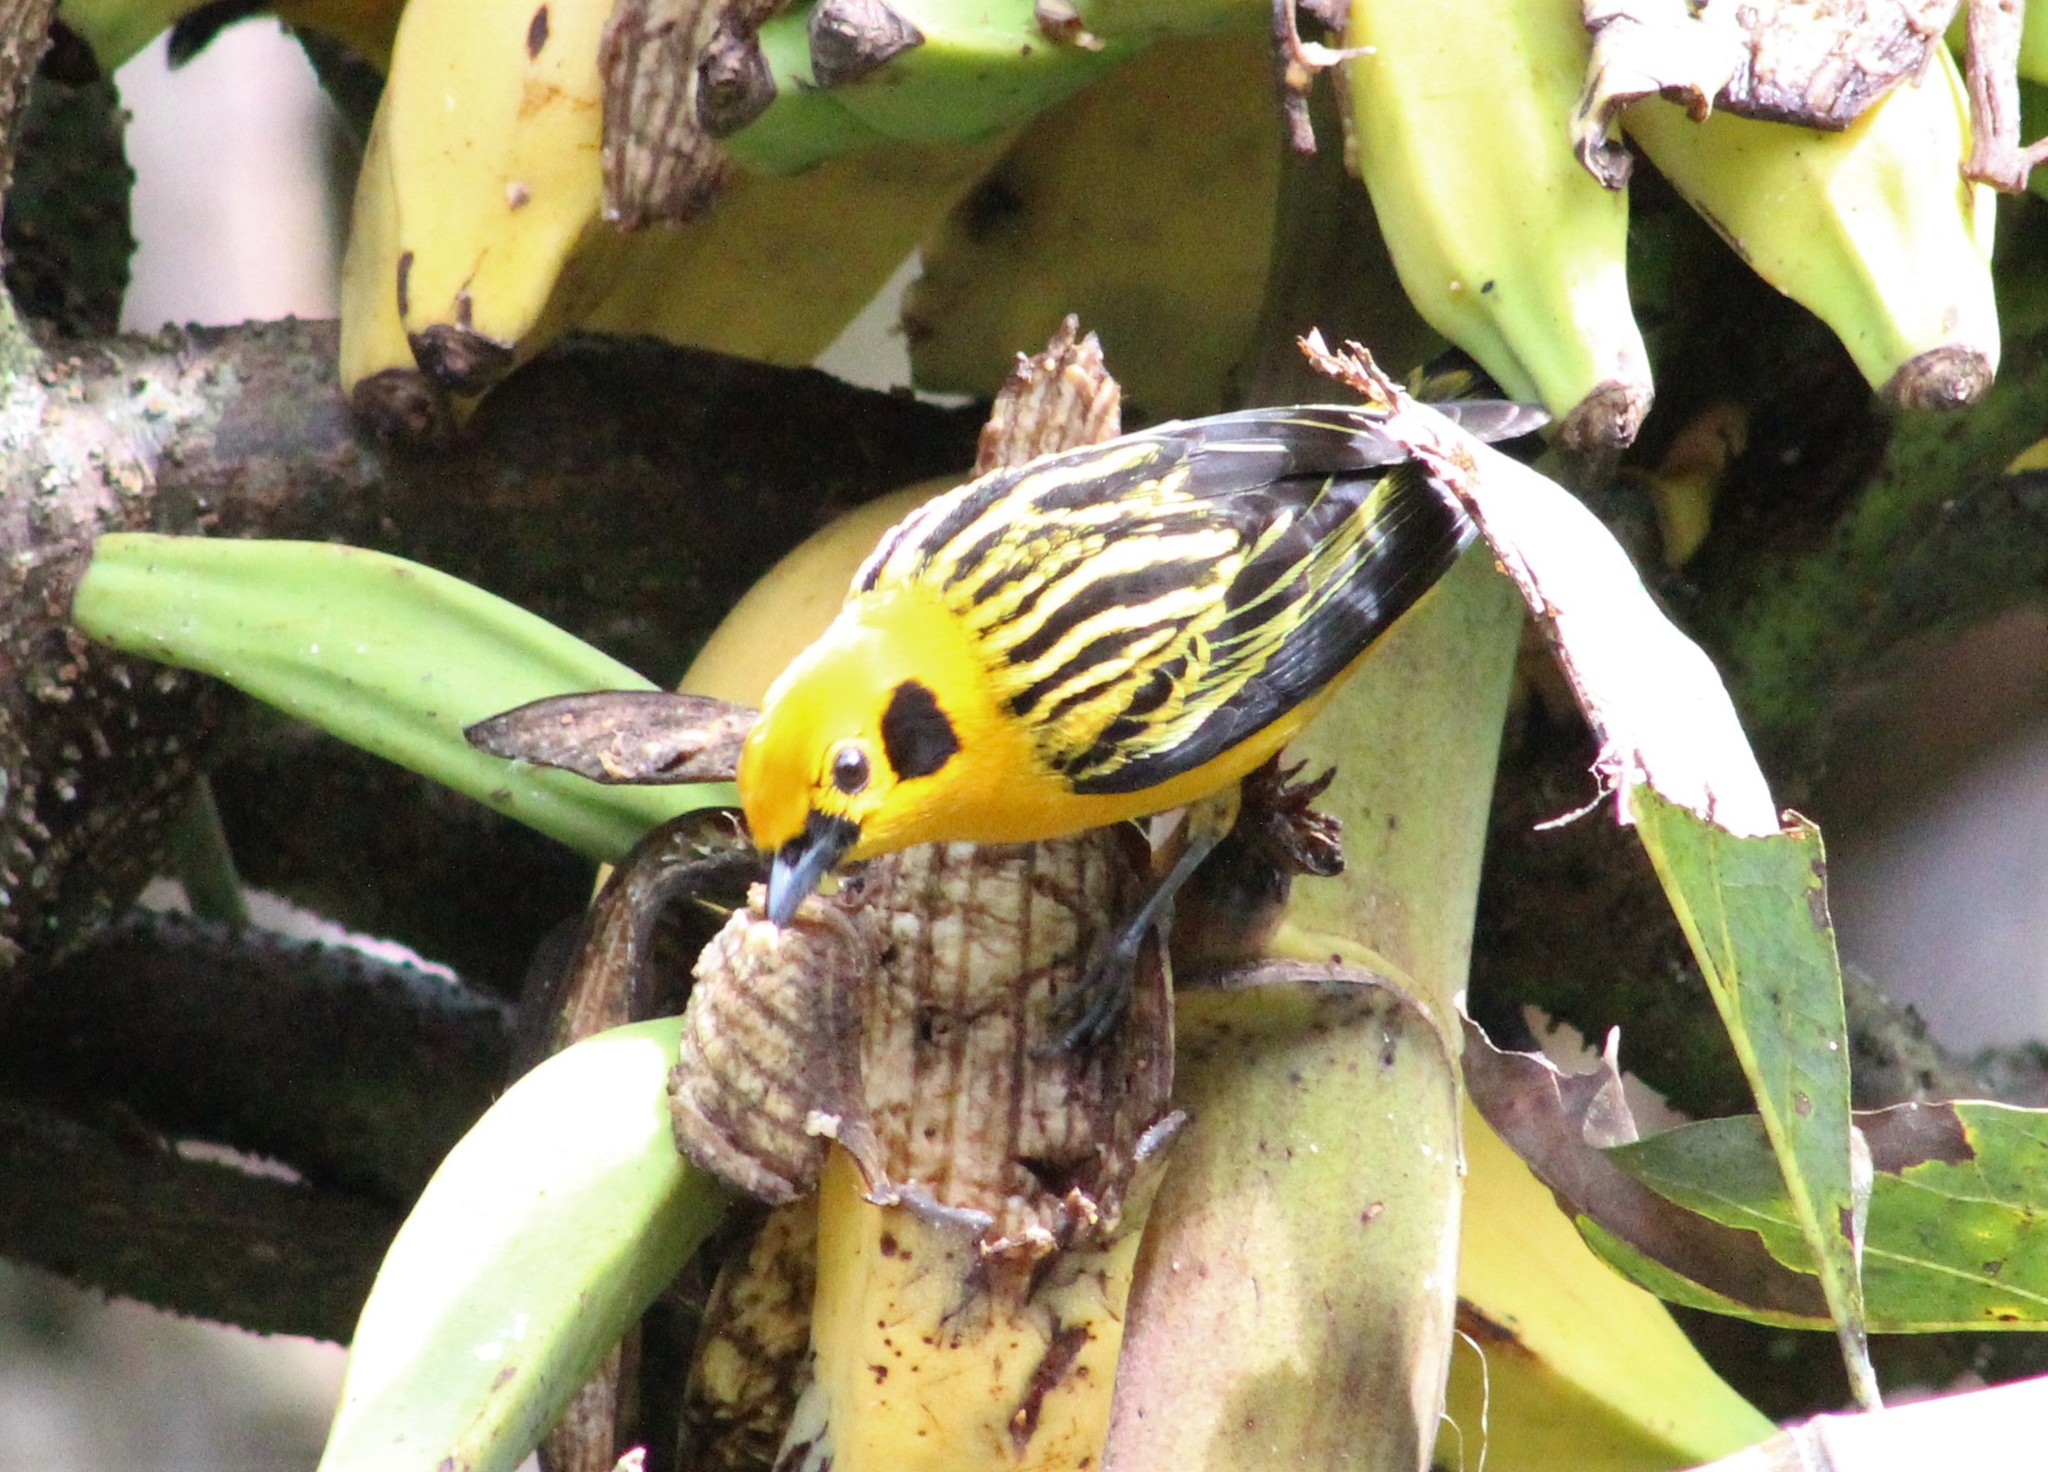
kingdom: Animalia
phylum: Chordata
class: Aves
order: Passeriformes
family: Thraupidae
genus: Tangara
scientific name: Tangara arthus
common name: Golden tanager
